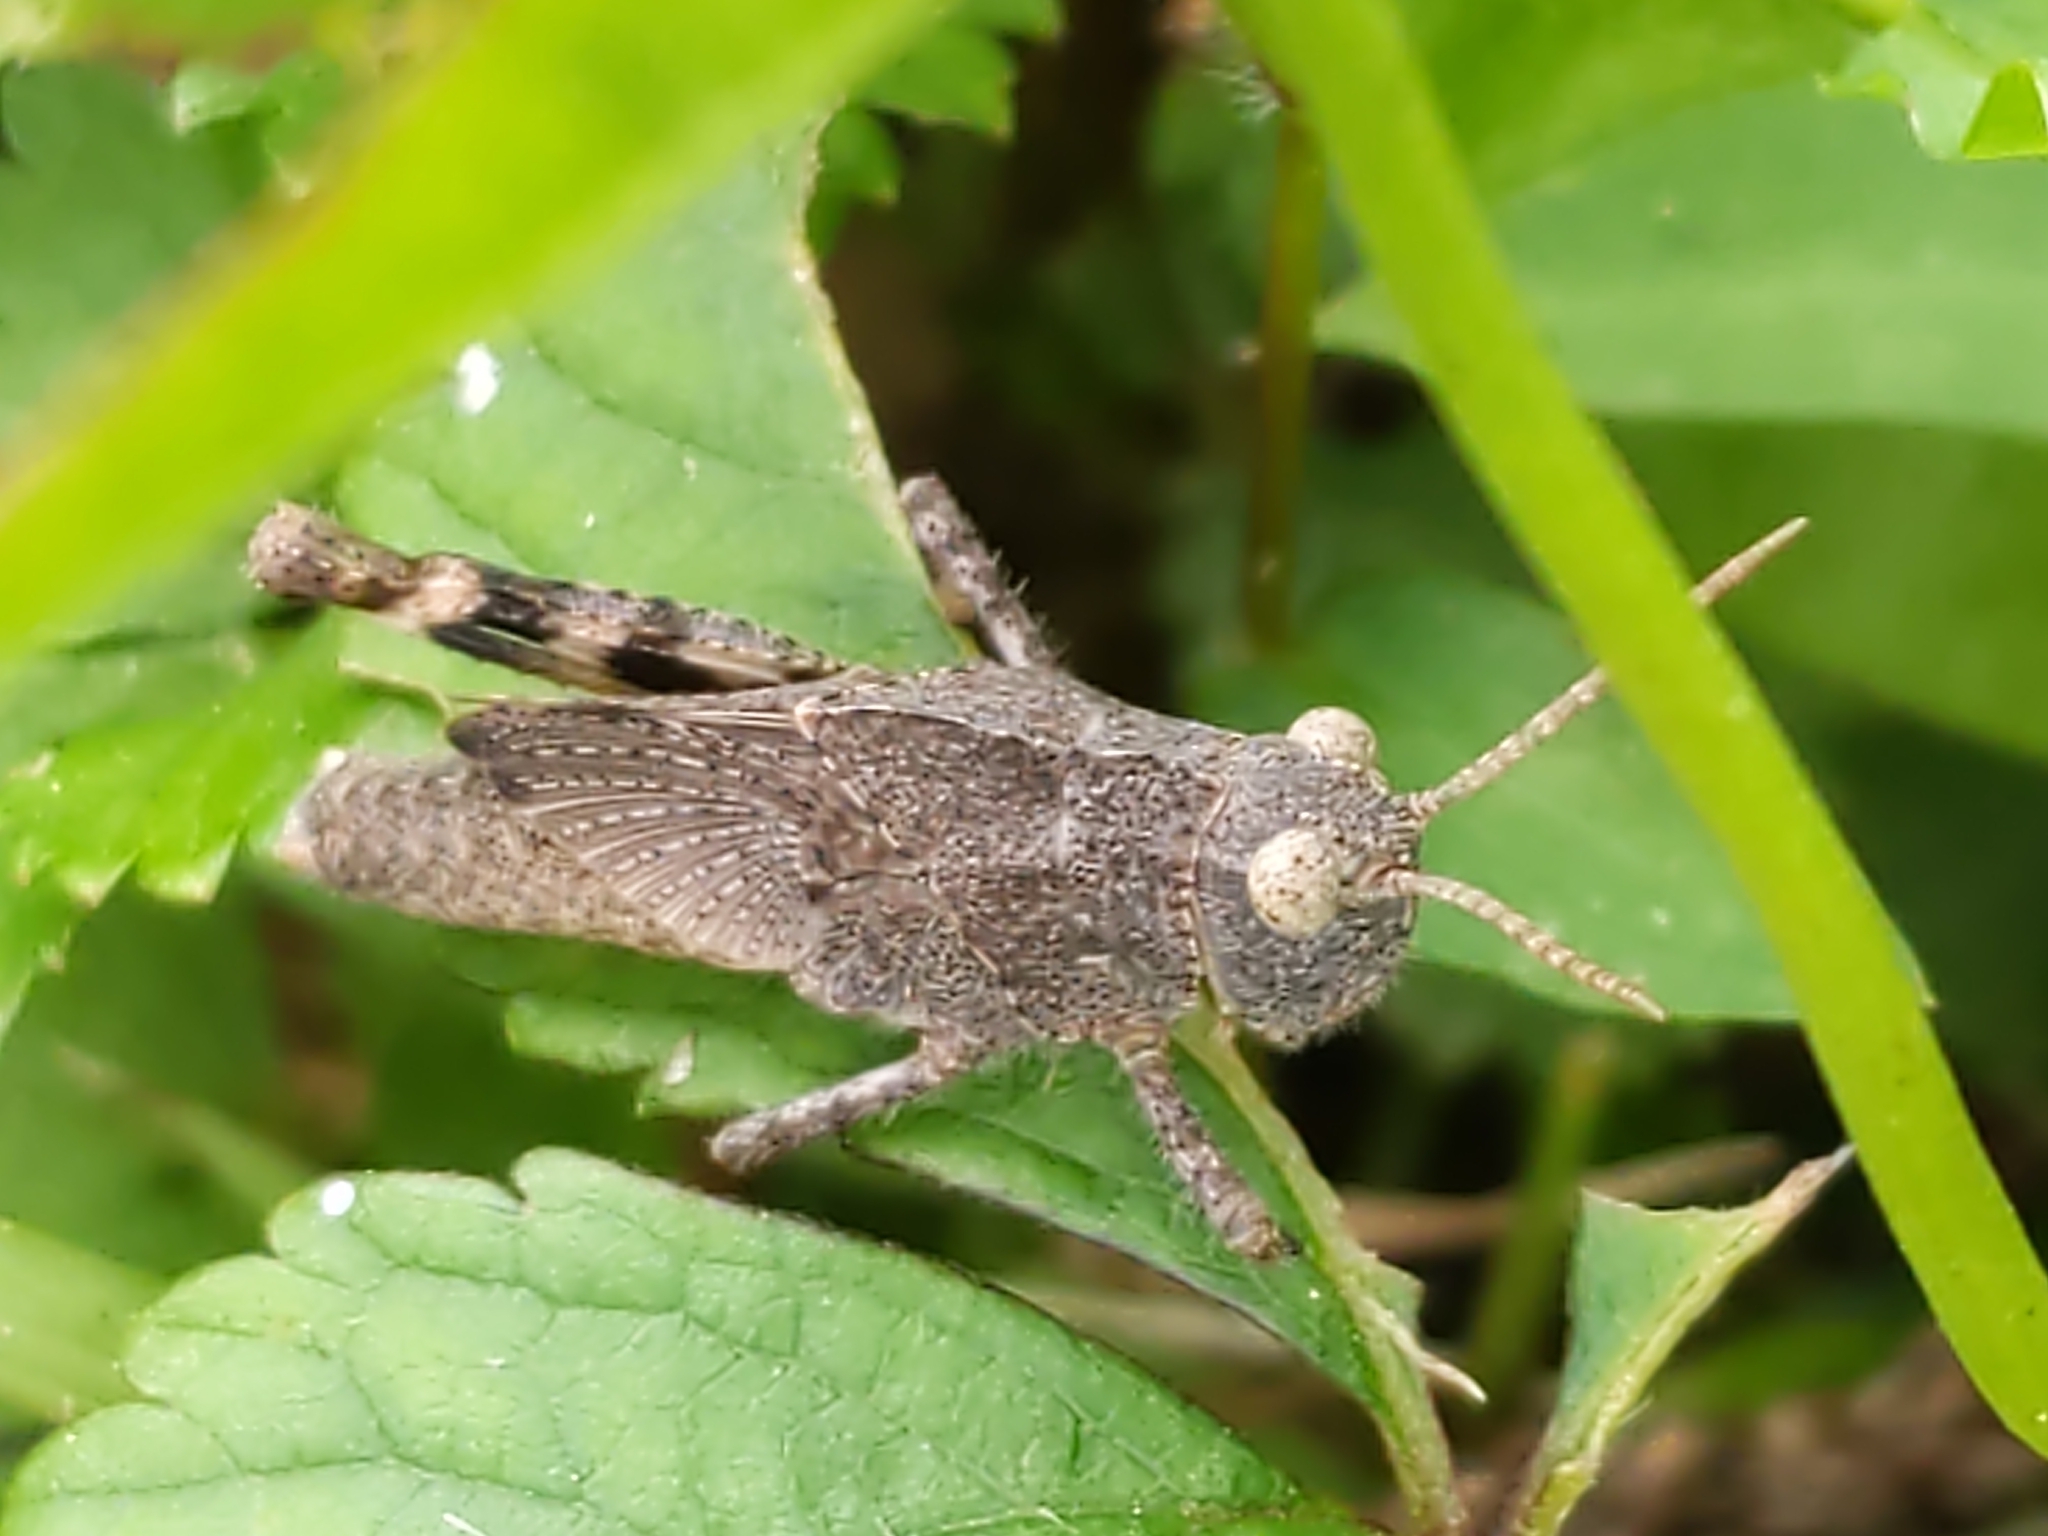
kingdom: Animalia
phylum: Arthropoda
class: Insecta
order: Orthoptera
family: Acrididae
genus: Dissosteira
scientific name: Dissosteira carolina
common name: Carolina grasshopper
